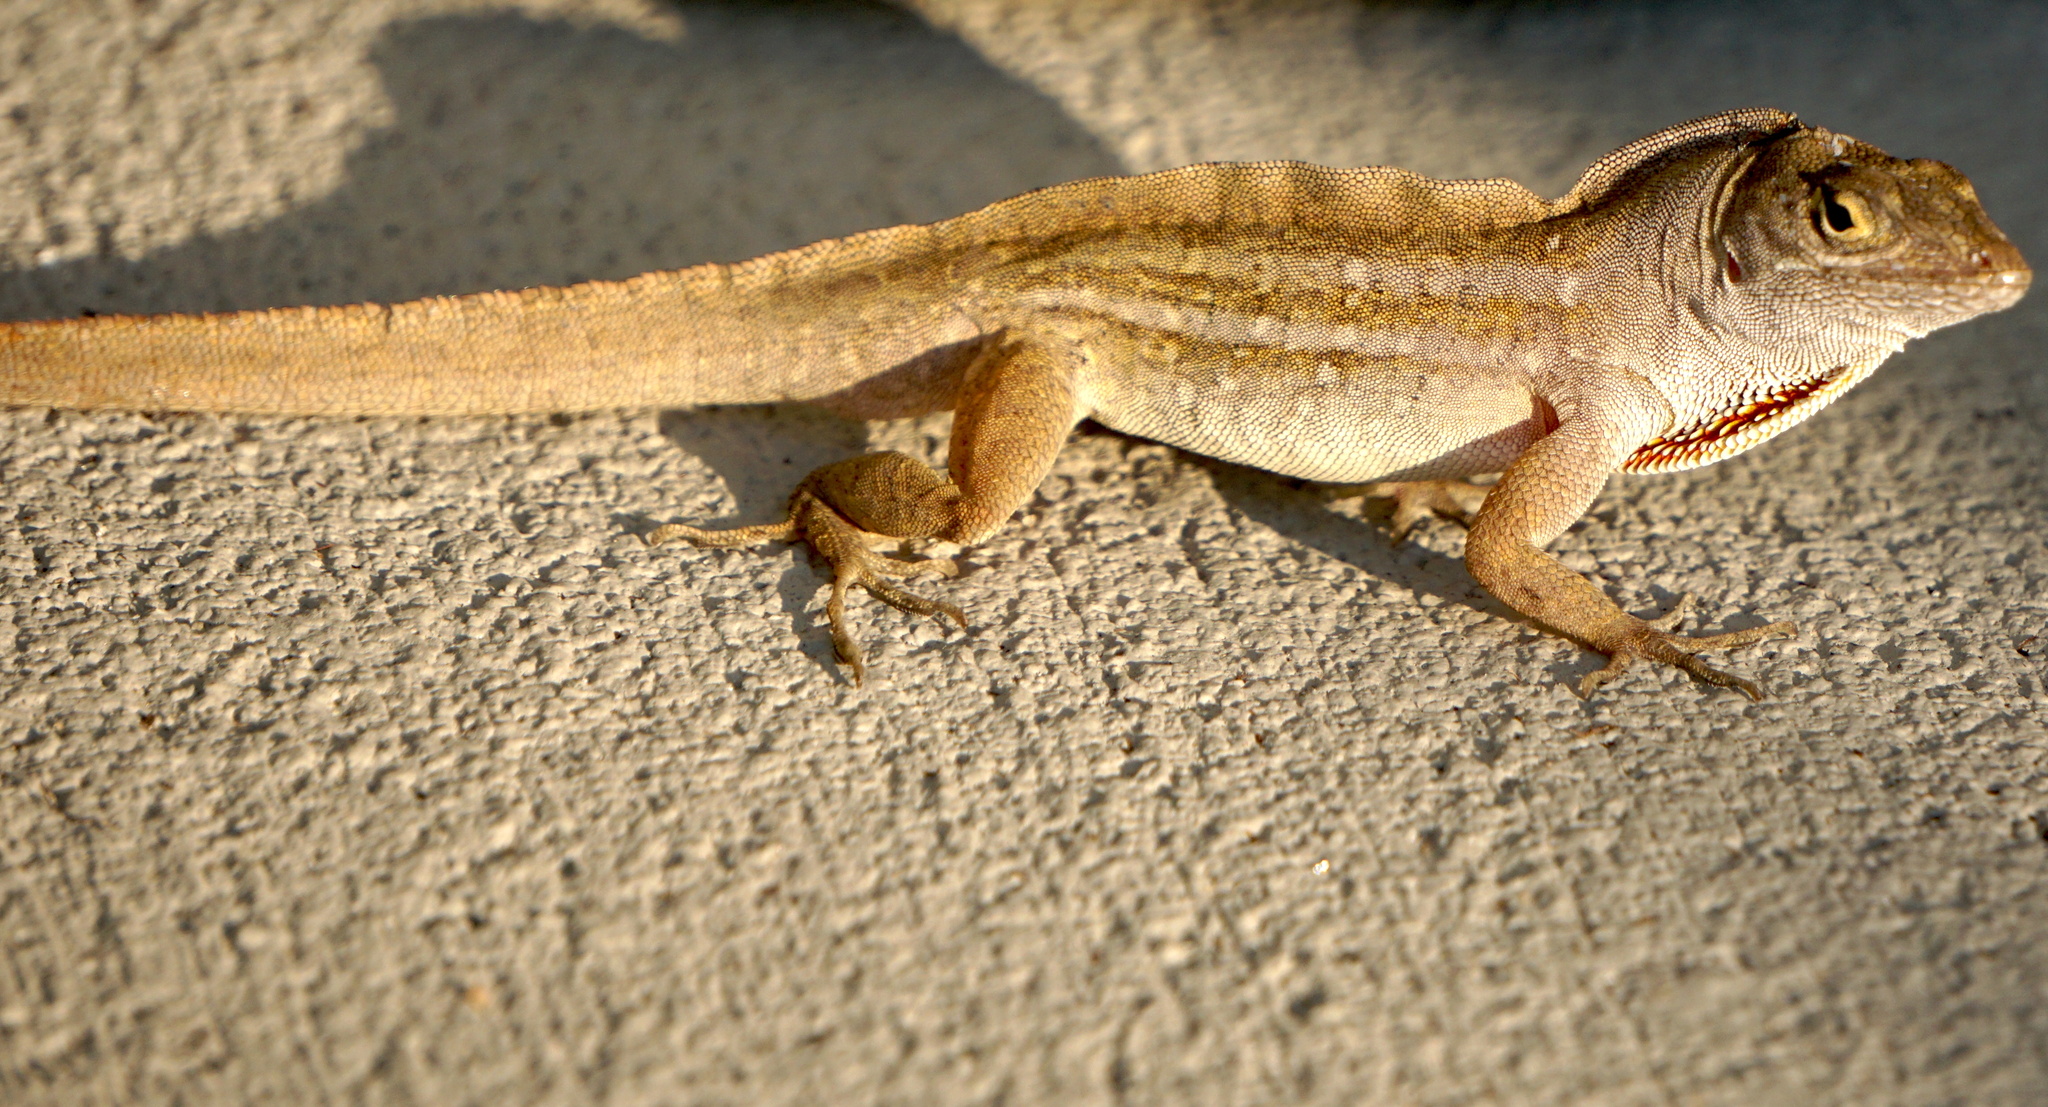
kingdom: Animalia
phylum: Chordata
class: Squamata
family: Dactyloidae
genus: Anolis
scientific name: Anolis sagrei
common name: Brown anole
